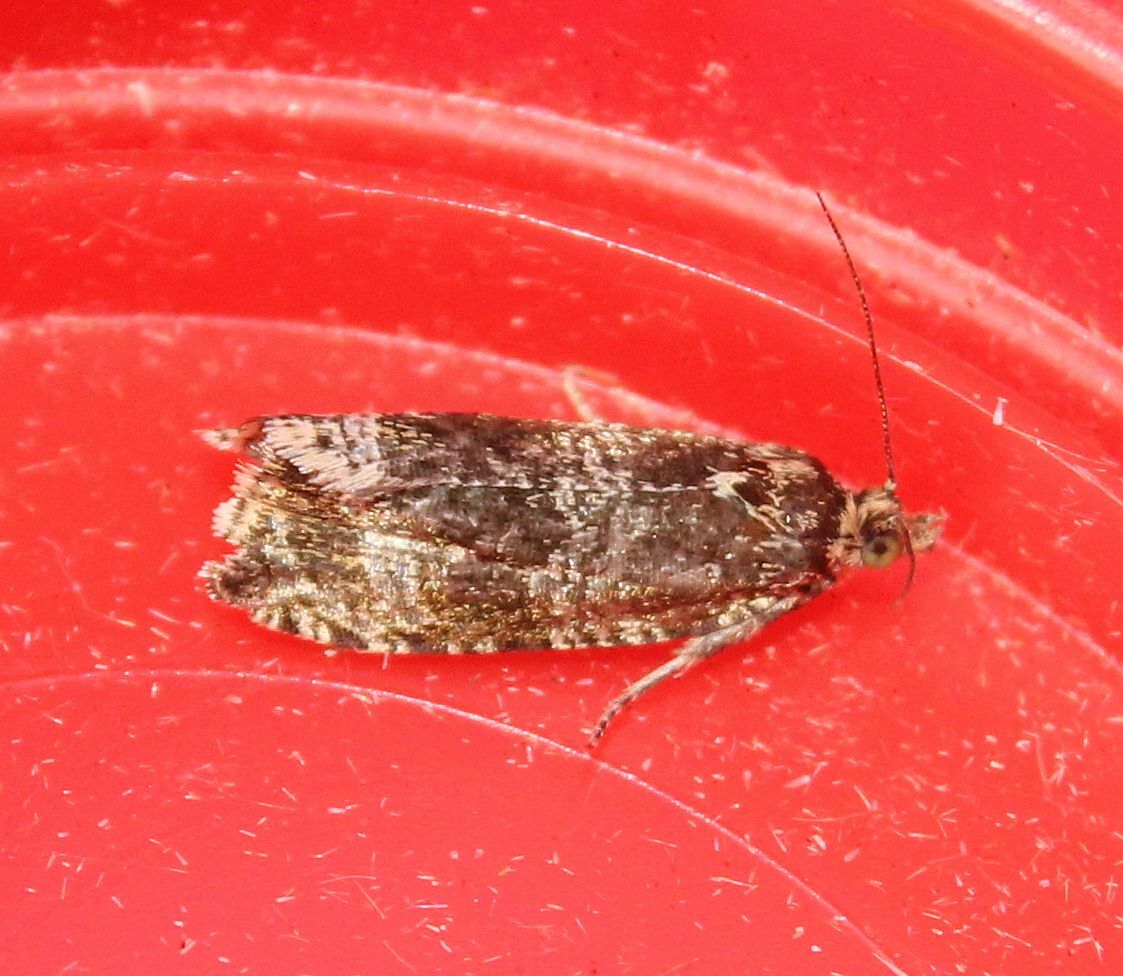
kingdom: Animalia
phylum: Arthropoda
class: Insecta
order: Lepidoptera
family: Tortricidae
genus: Syricoris
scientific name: Syricoris lacunana
